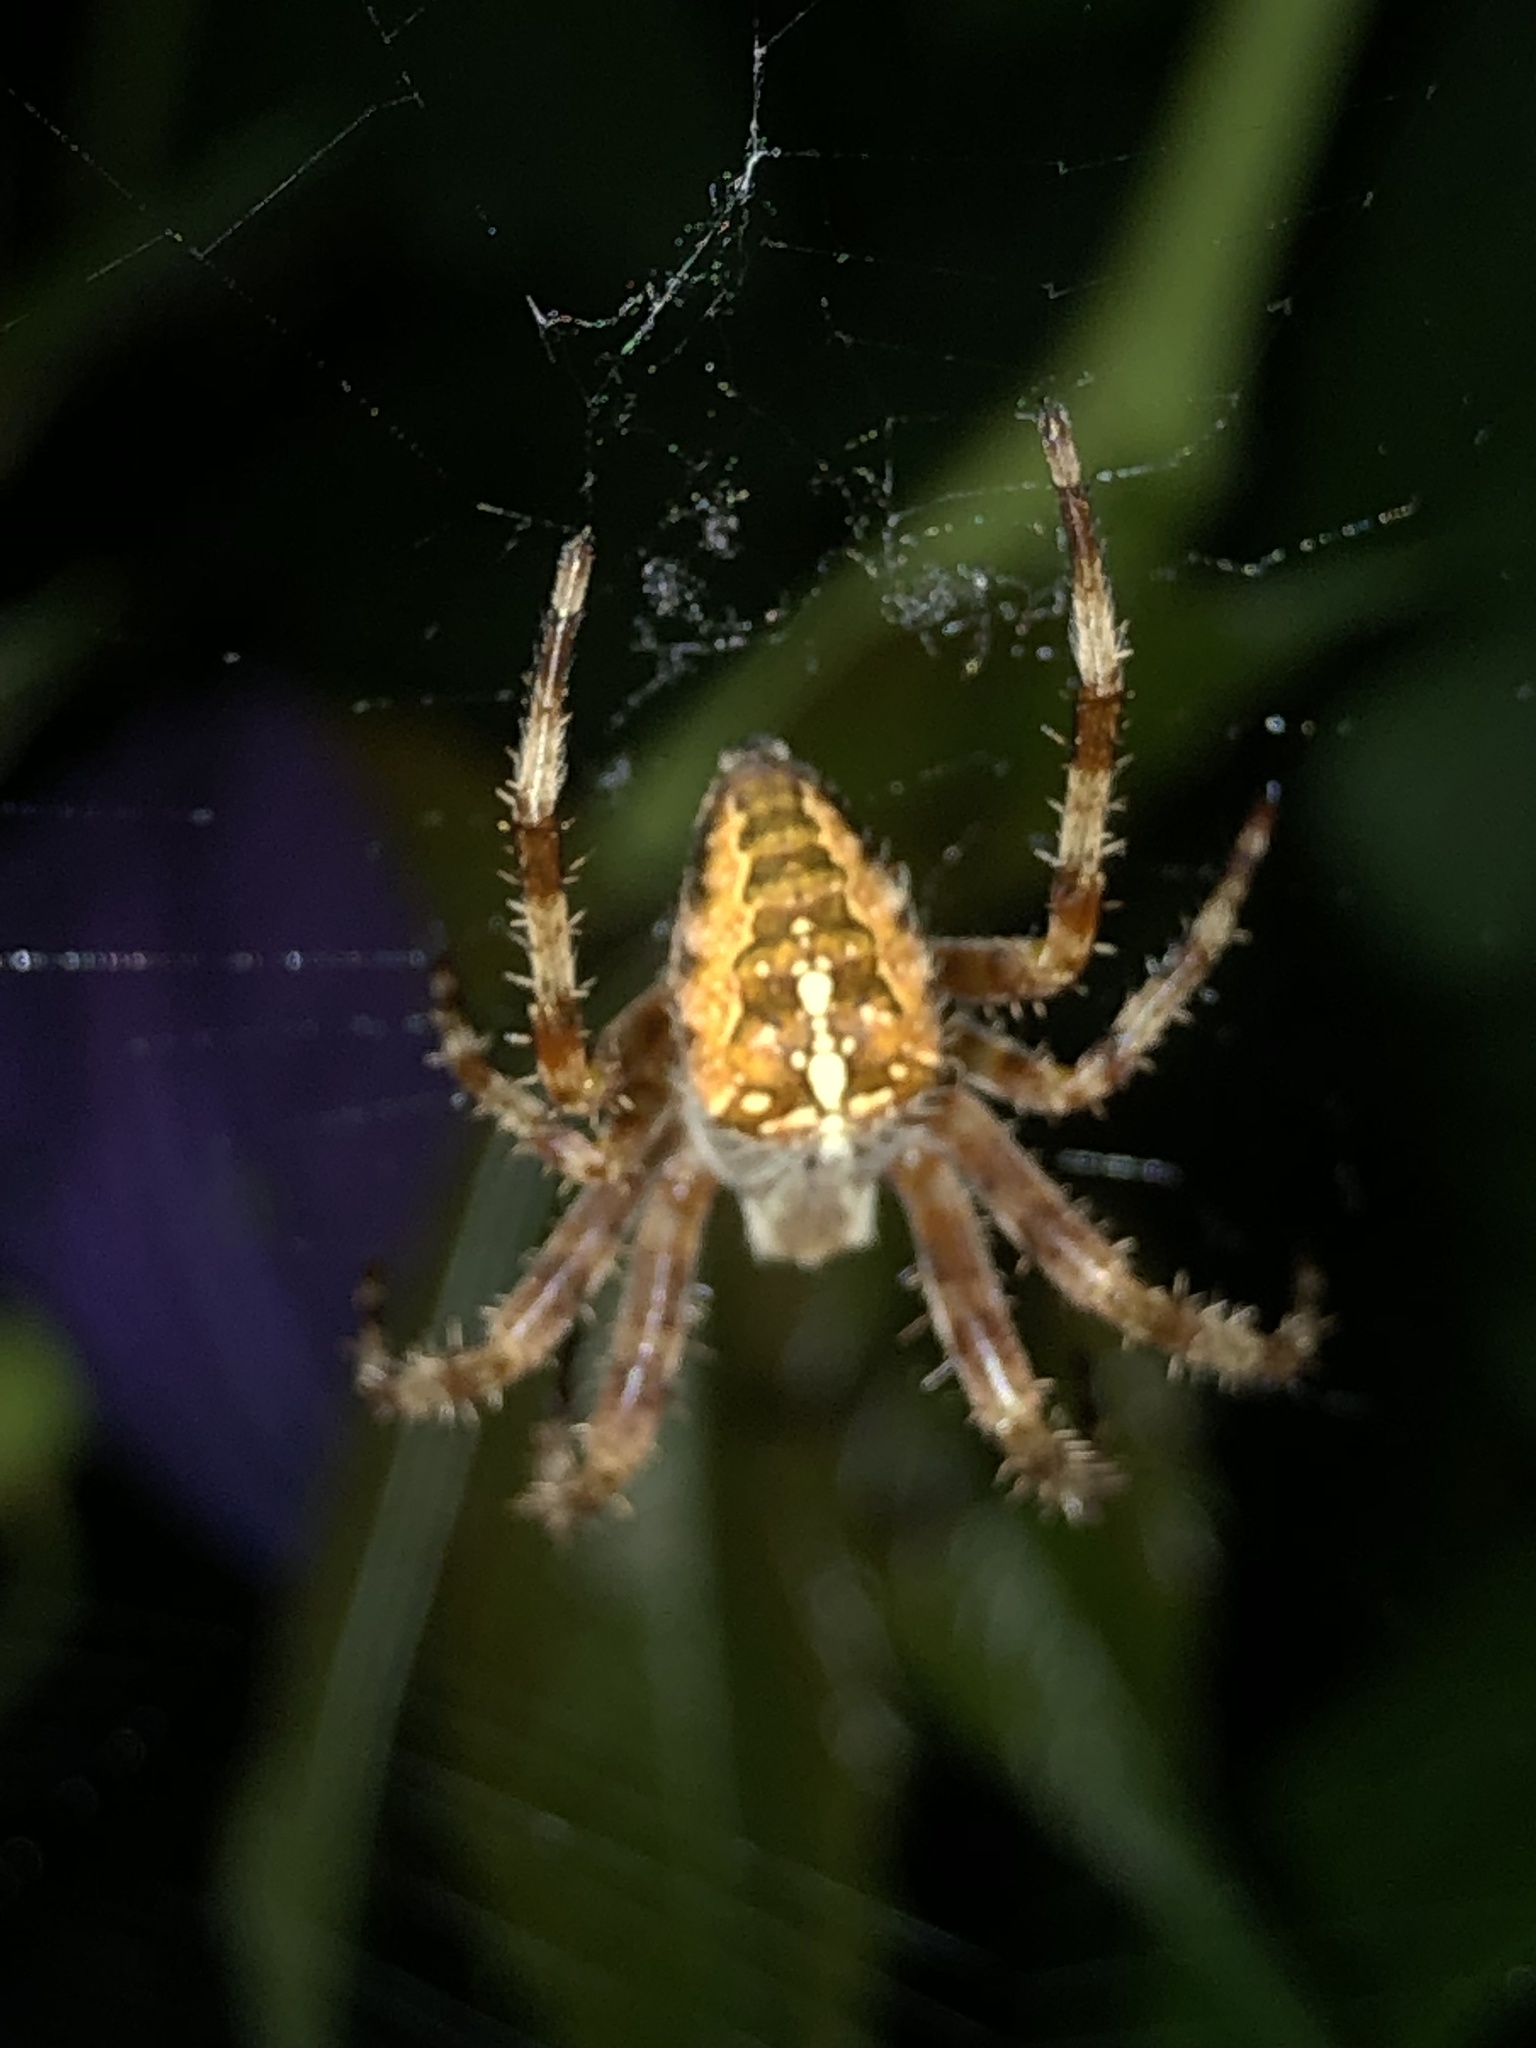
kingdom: Animalia
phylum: Arthropoda
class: Arachnida
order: Araneae
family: Araneidae
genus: Araneus
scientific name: Araneus diadematus
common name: Cross orbweaver
